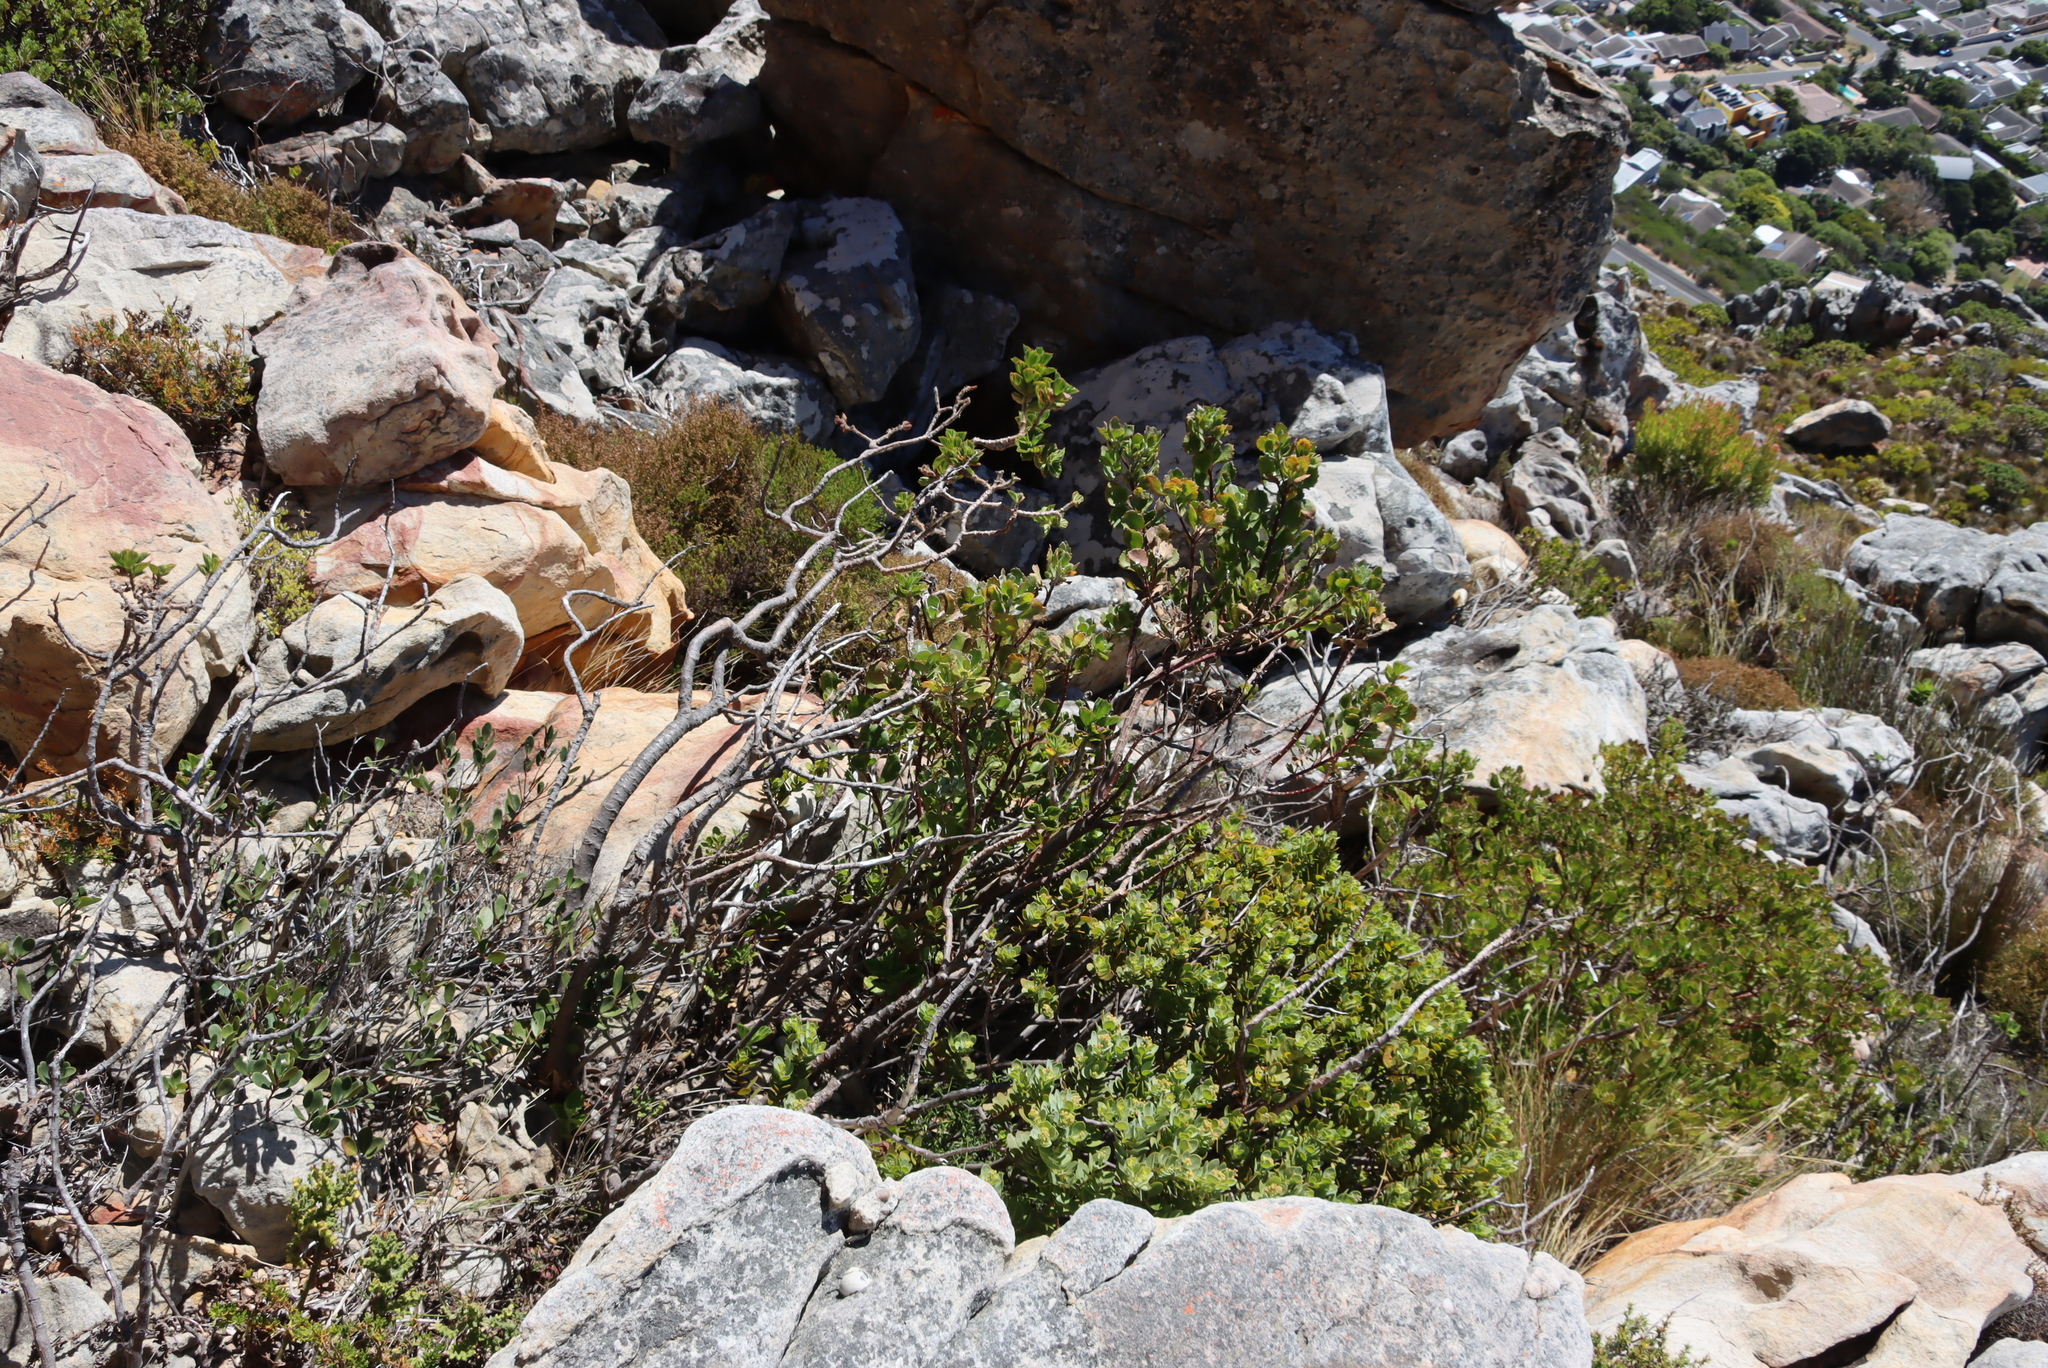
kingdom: Plantae
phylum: Tracheophyta
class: Magnoliopsida
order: Geraniales
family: Geraniaceae
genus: Pelargonium
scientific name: Pelargonium cucullatum
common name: Tree pelargonium
